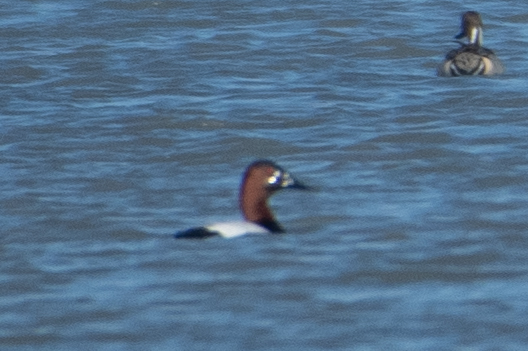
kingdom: Animalia
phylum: Chordata
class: Aves
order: Anseriformes
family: Anatidae
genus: Aythya
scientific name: Aythya valisineria
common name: Canvasback
